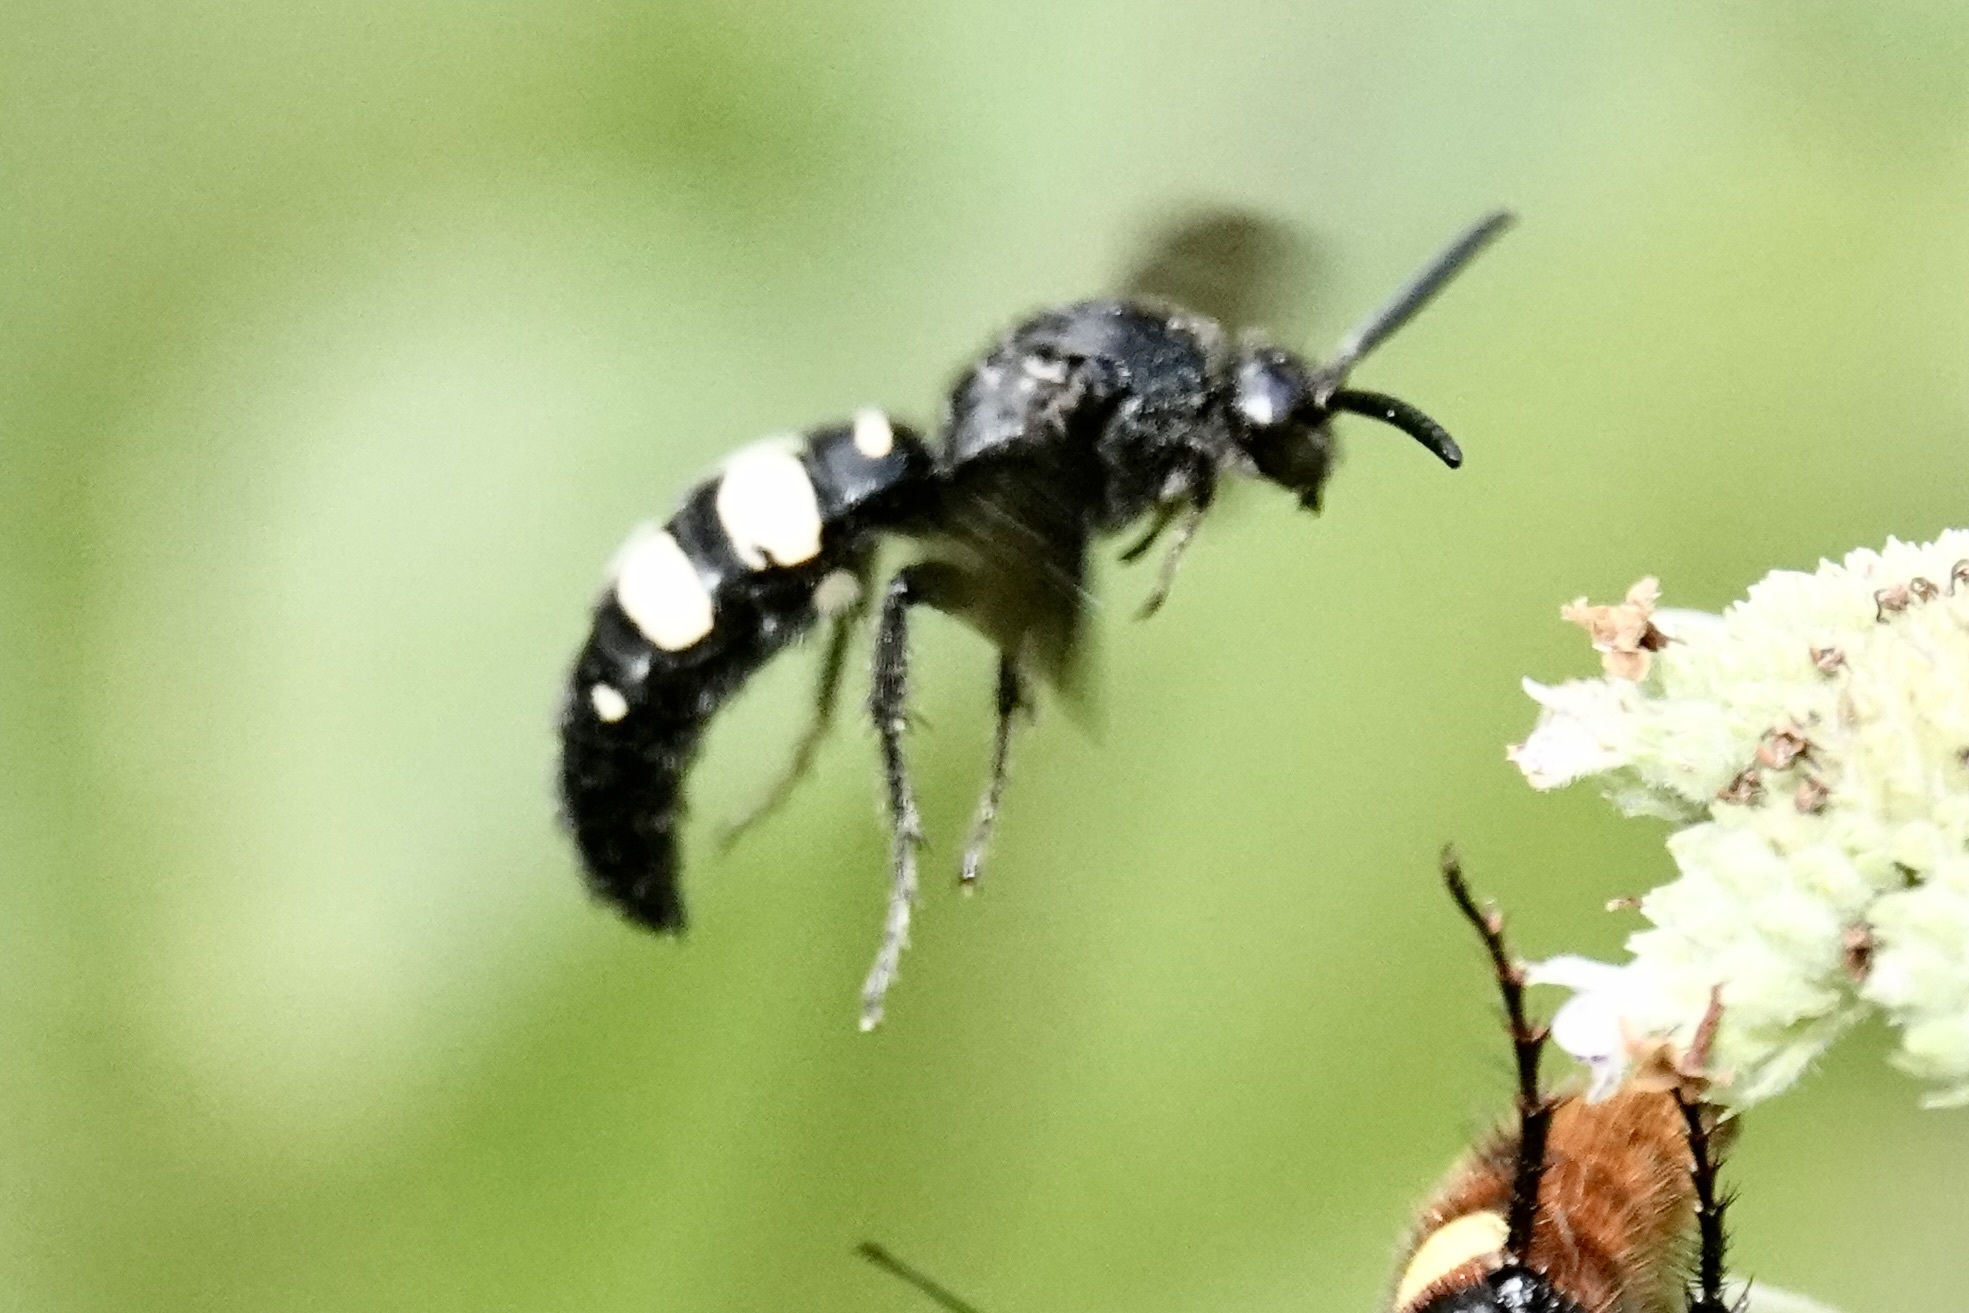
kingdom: Animalia
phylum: Arthropoda
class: Insecta
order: Hymenoptera
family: Scoliidae
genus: Scolia
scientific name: Scolia bicincta
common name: Double-banded scoliid wasp
